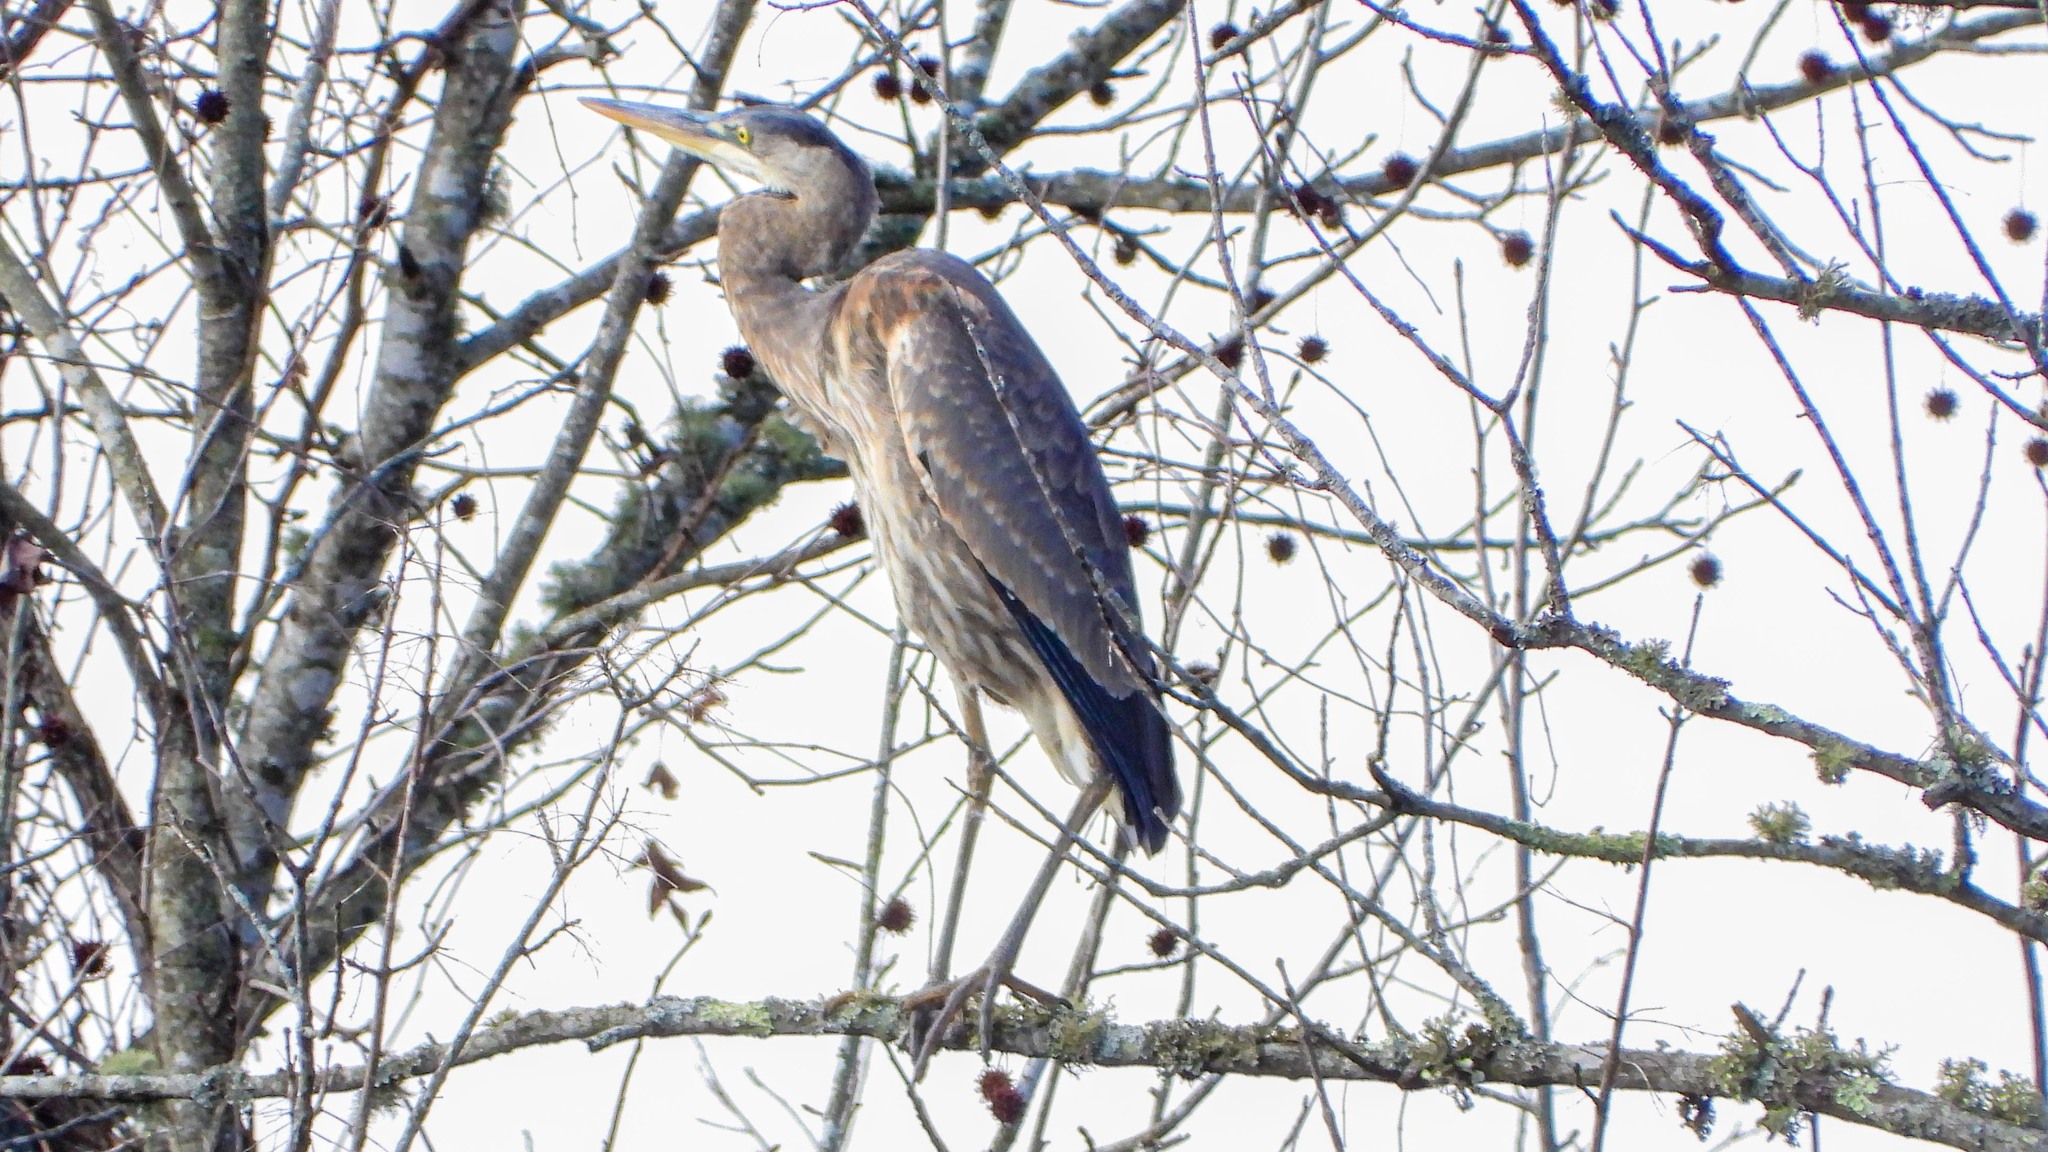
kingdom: Animalia
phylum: Chordata
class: Aves
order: Pelecaniformes
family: Ardeidae
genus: Ardea
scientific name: Ardea herodias
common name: Great blue heron
